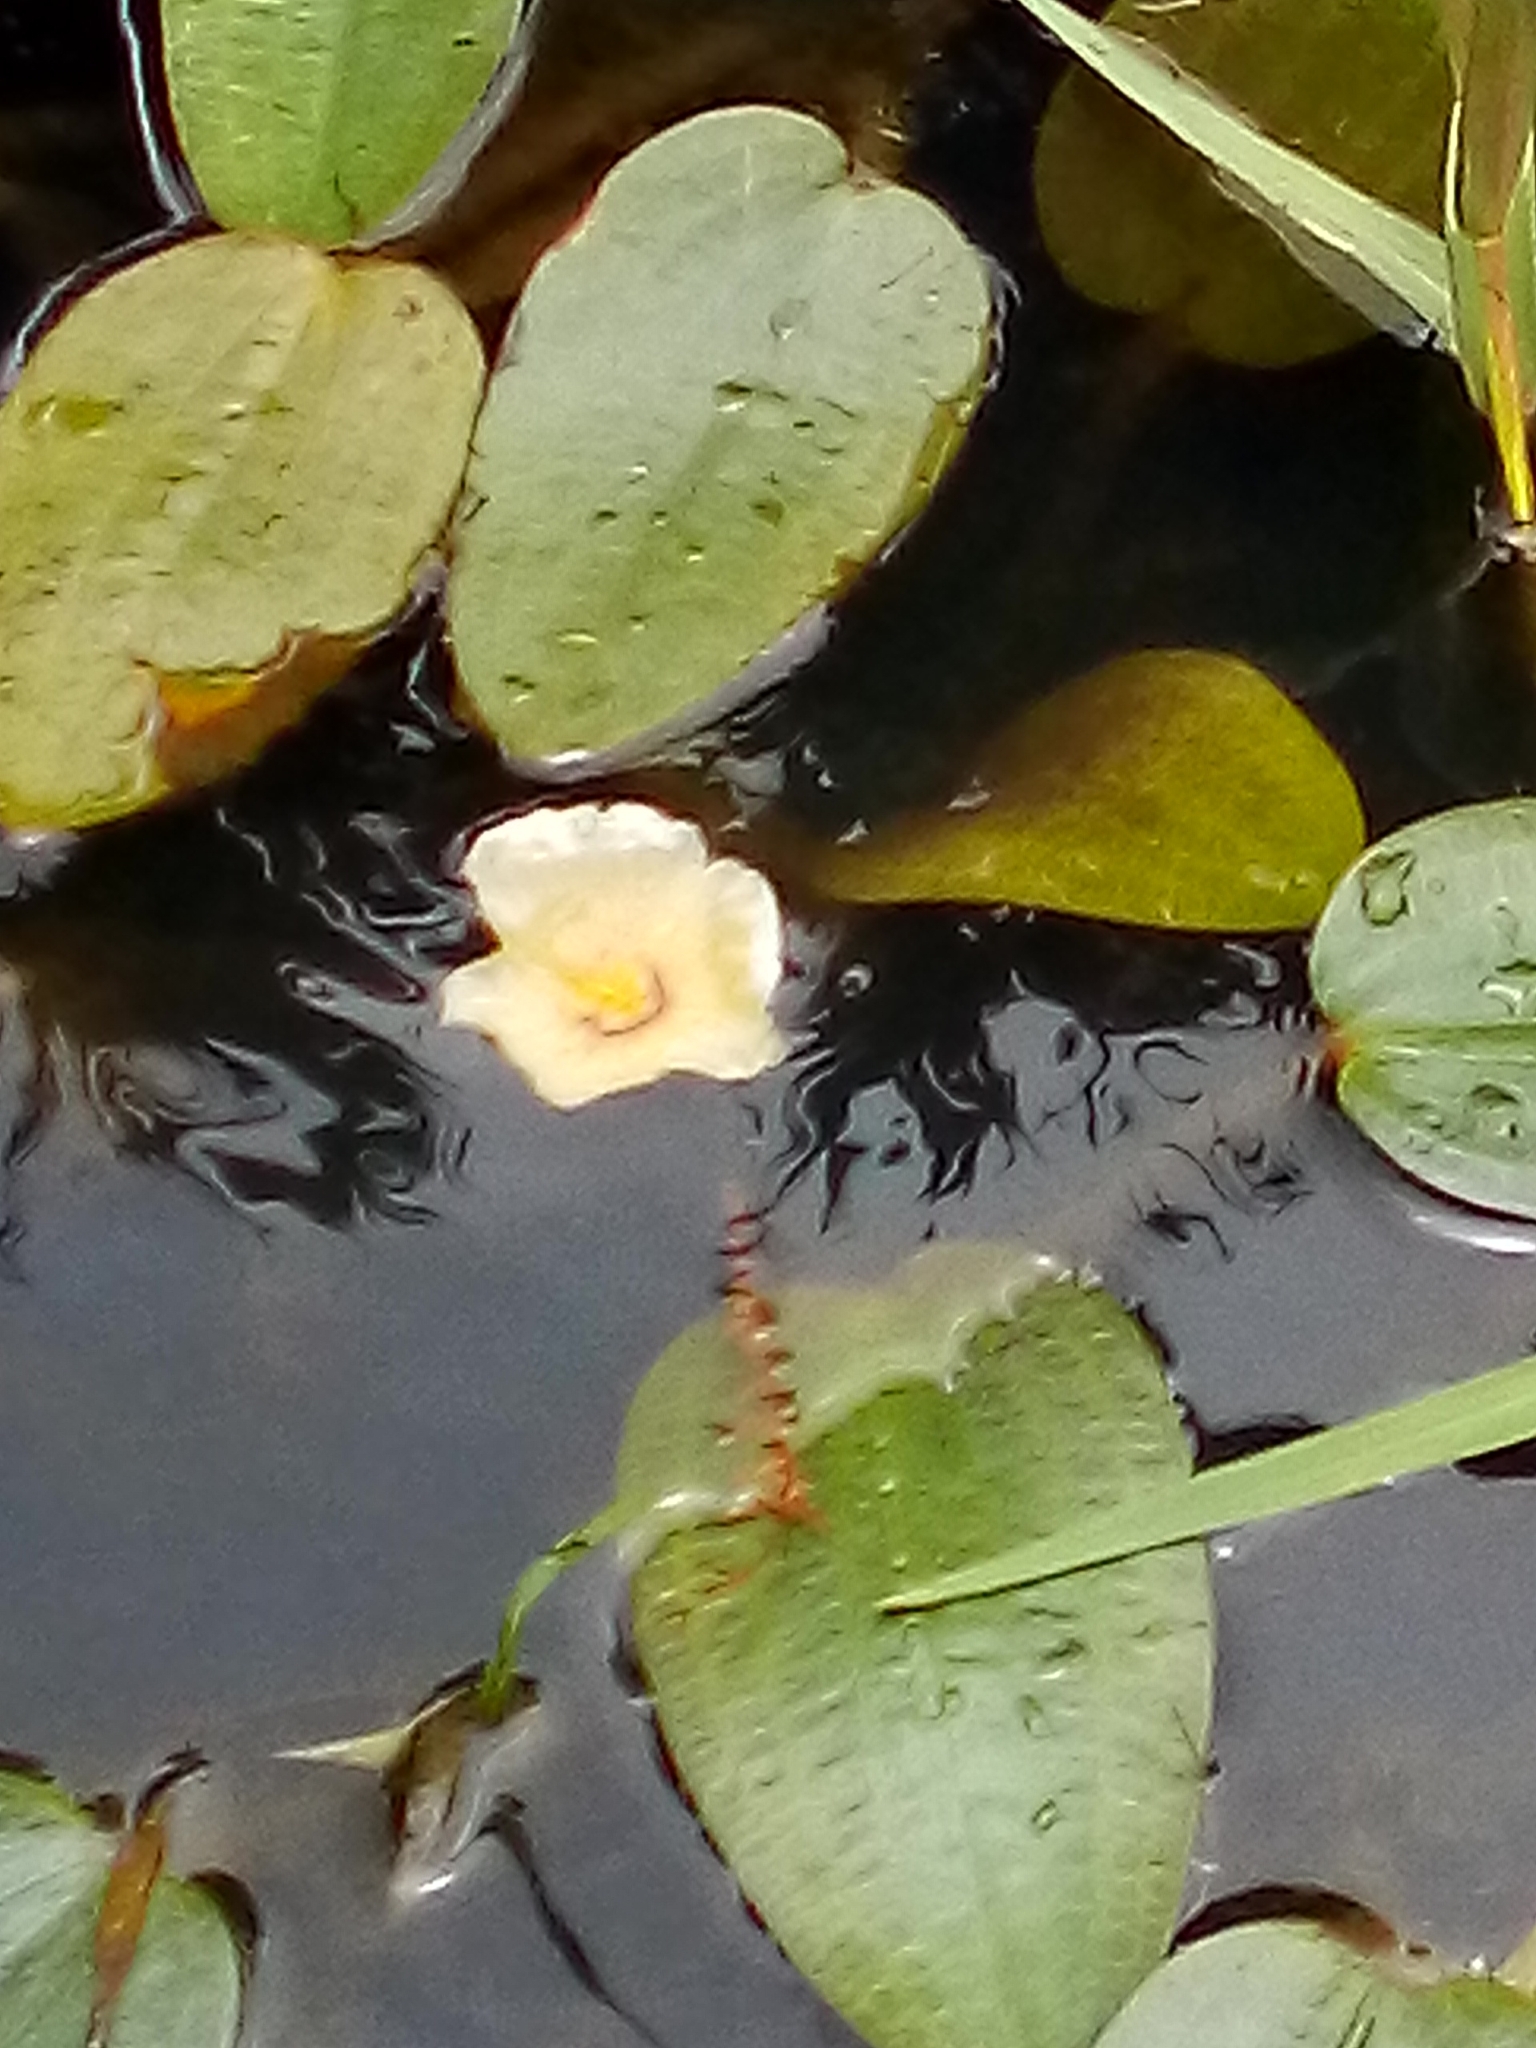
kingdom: Plantae
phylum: Tracheophyta
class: Liliopsida
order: Alismatales
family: Hydrocharitaceae
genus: Ottelia
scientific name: Ottelia ovalifolia
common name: Swamp-lily
